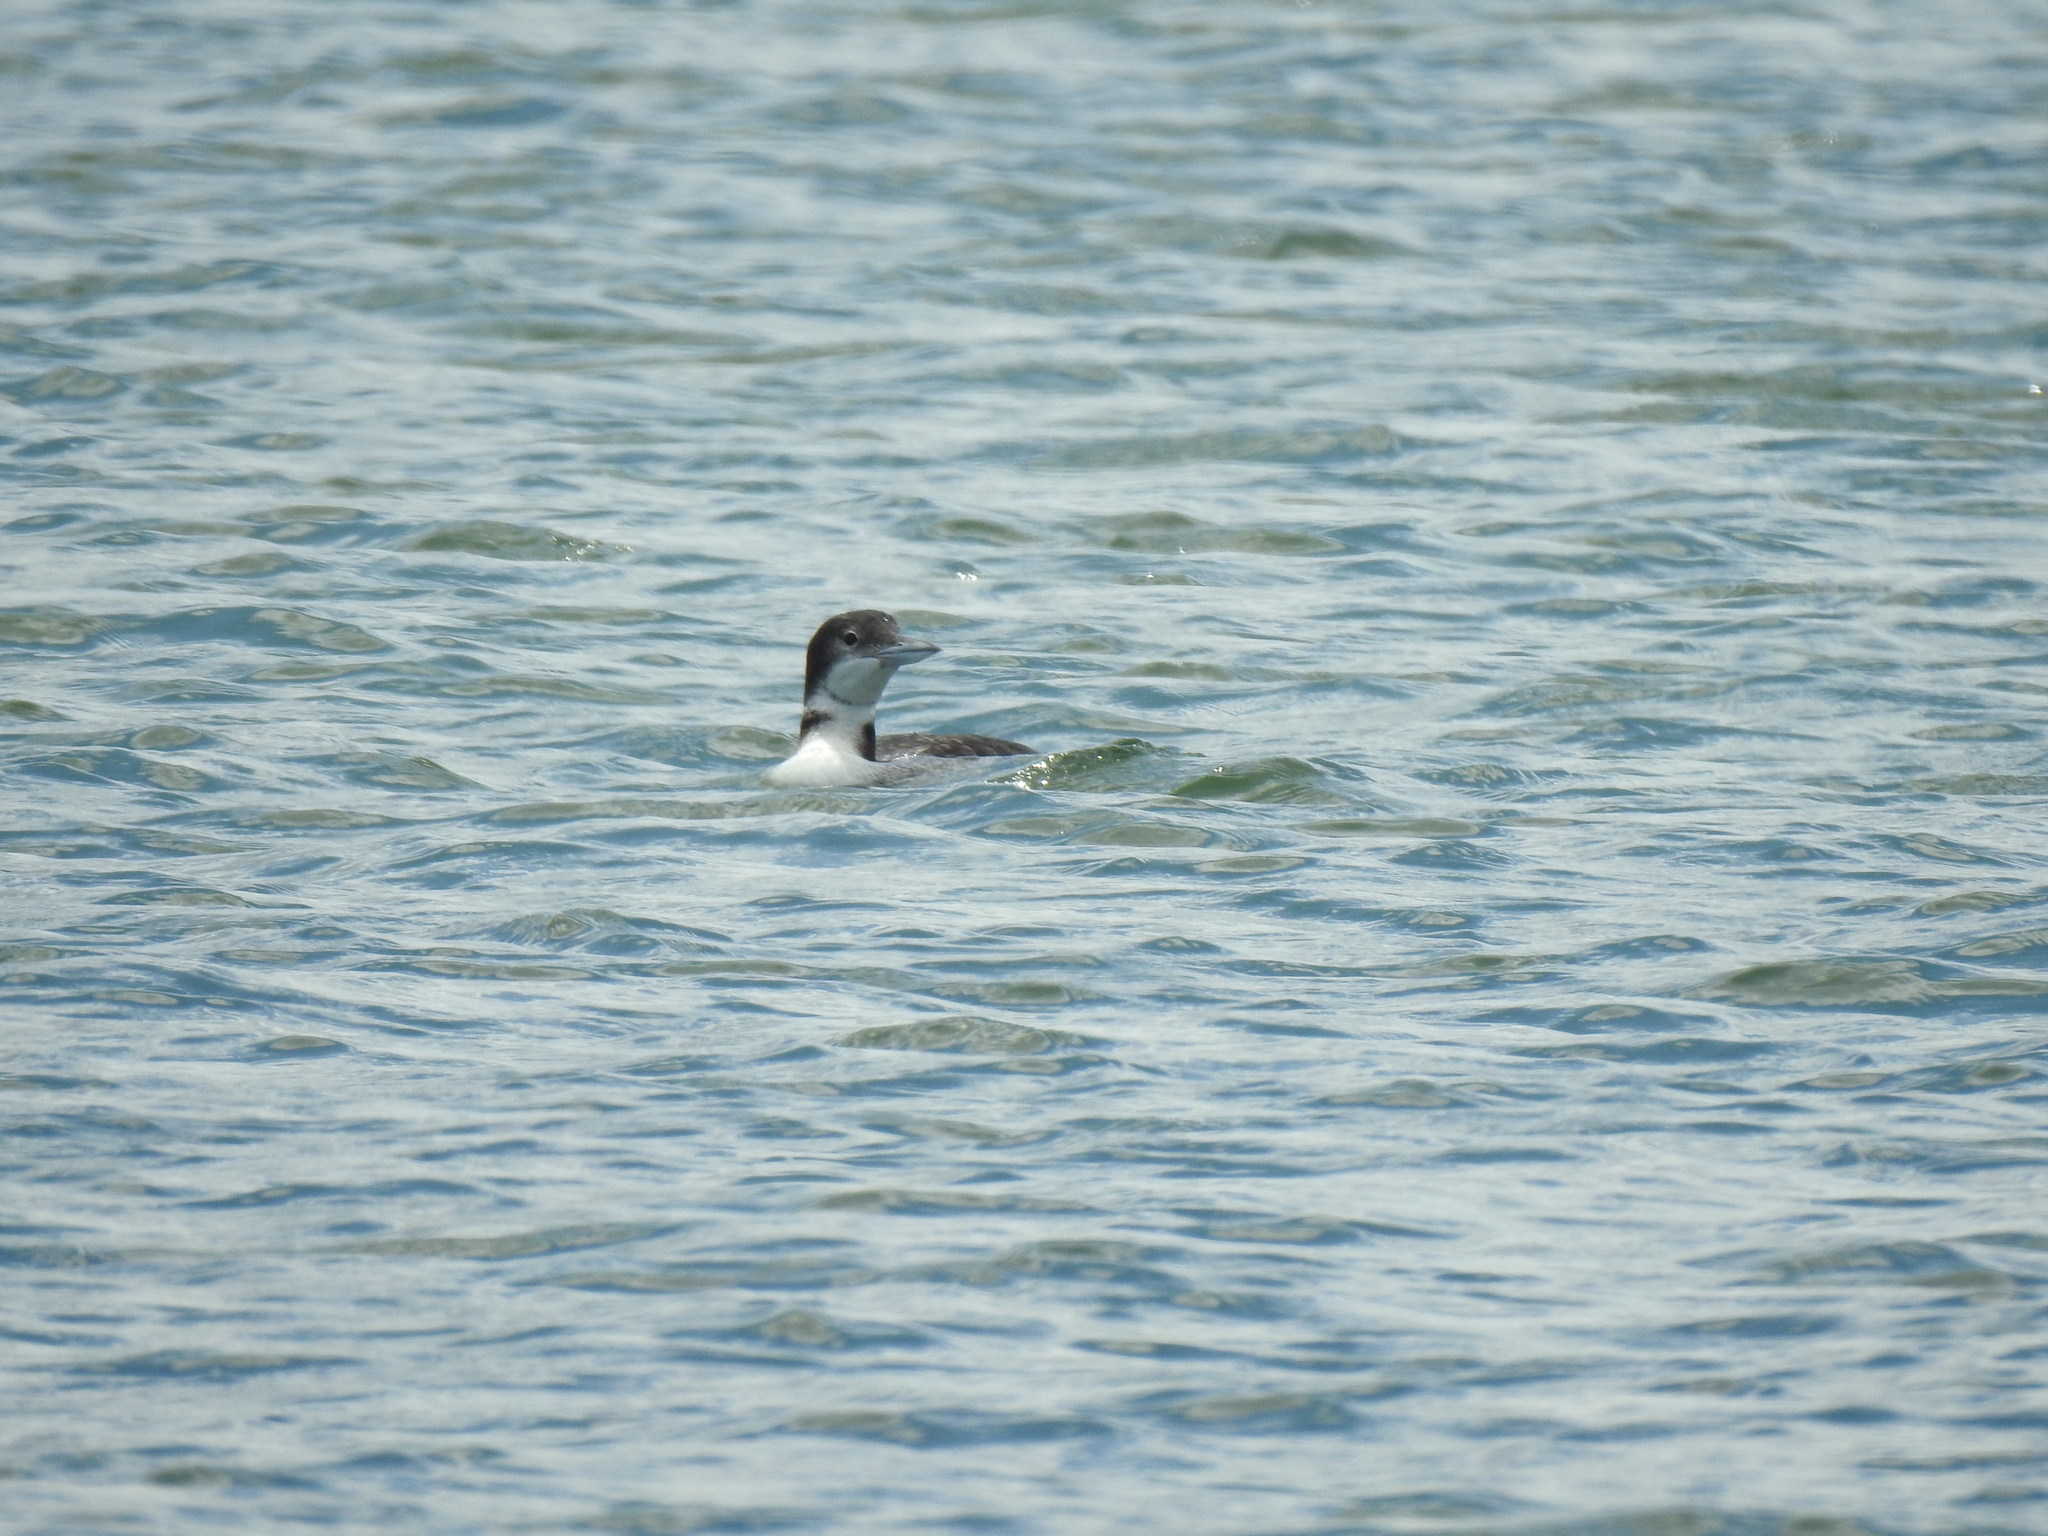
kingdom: Animalia
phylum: Chordata
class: Aves
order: Gaviiformes
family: Gaviidae
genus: Gavia
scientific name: Gavia immer
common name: Common loon
